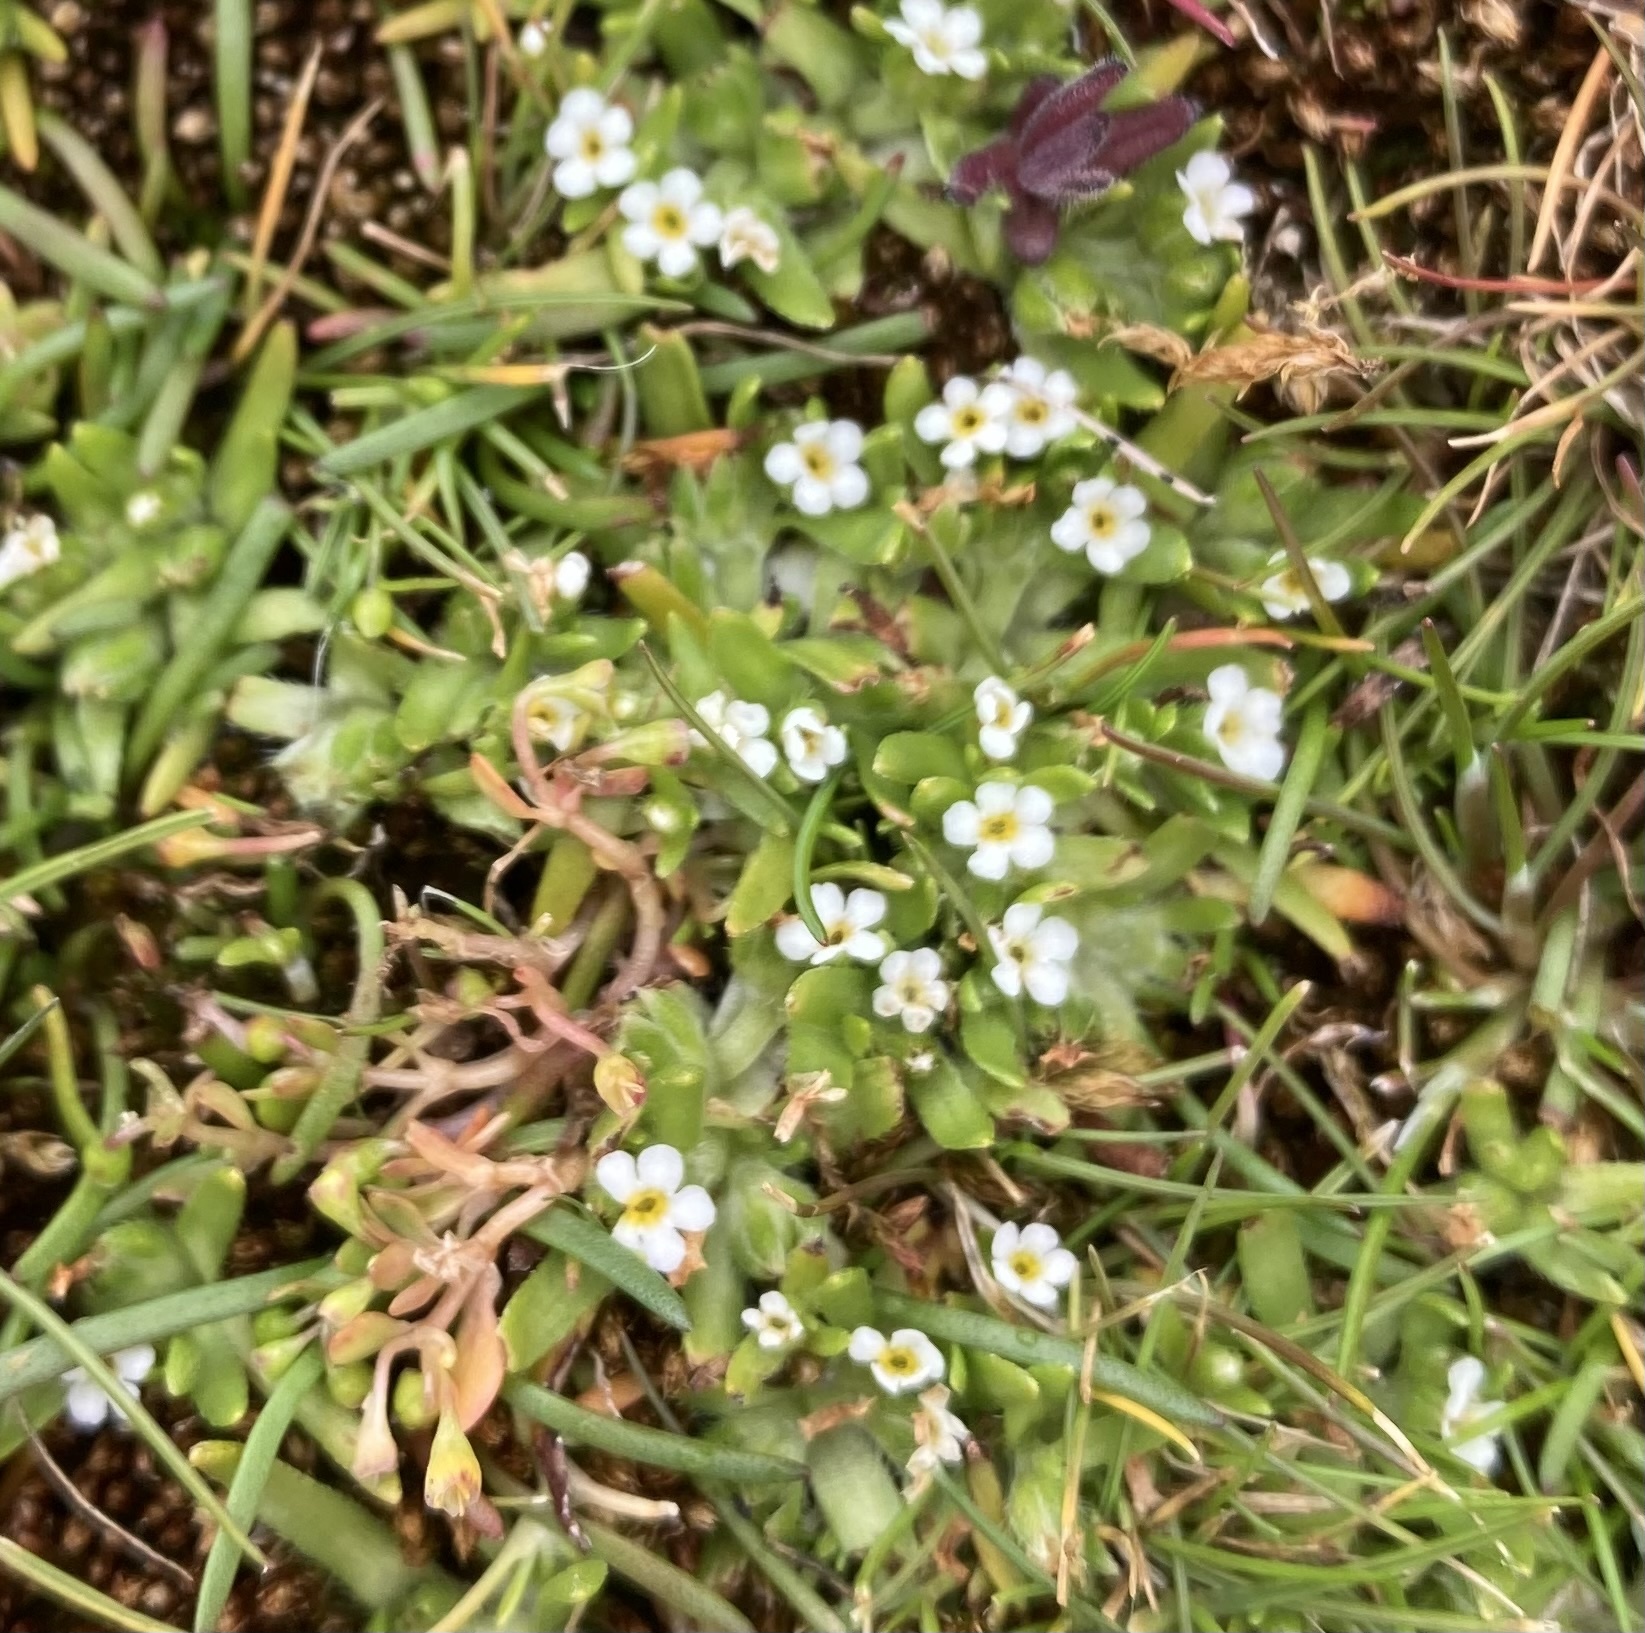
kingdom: Plantae
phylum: Tracheophyta
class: Magnoliopsida
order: Boraginales
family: Boraginaceae
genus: Plagiobothrys
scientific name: Plagiobothrys scouleri
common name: White forget-me-not
